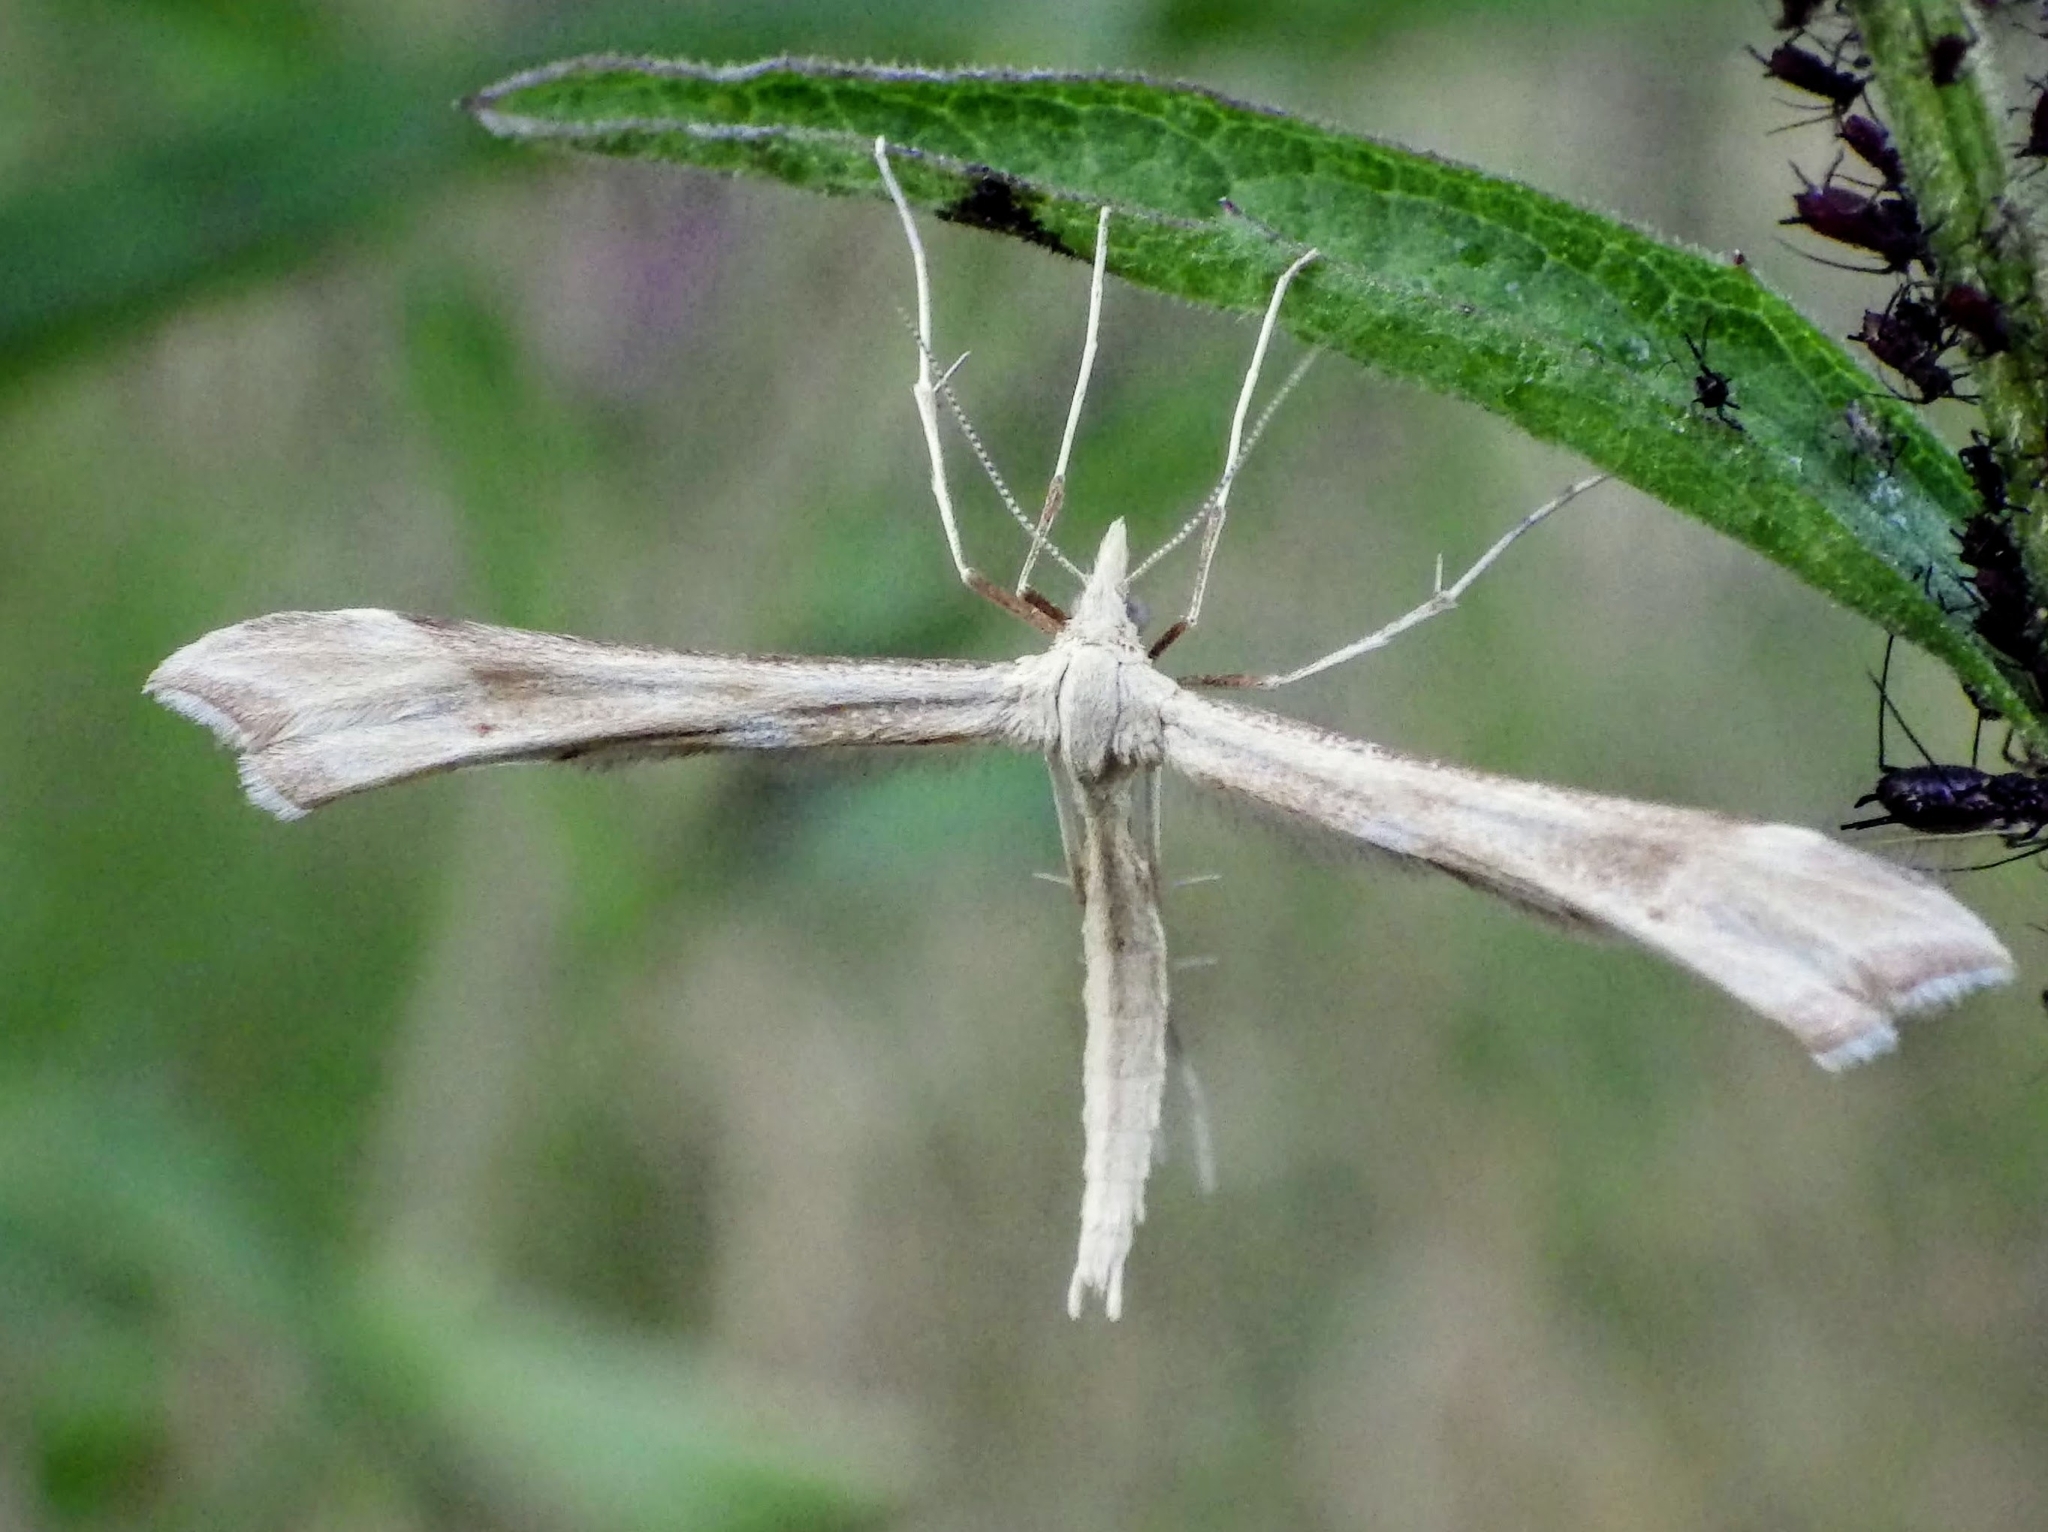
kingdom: Animalia
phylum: Arthropoda
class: Insecta
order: Lepidoptera
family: Pterophoridae
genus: Gillmeria
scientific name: Gillmeria pallidactyla
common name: Yarrow plume
